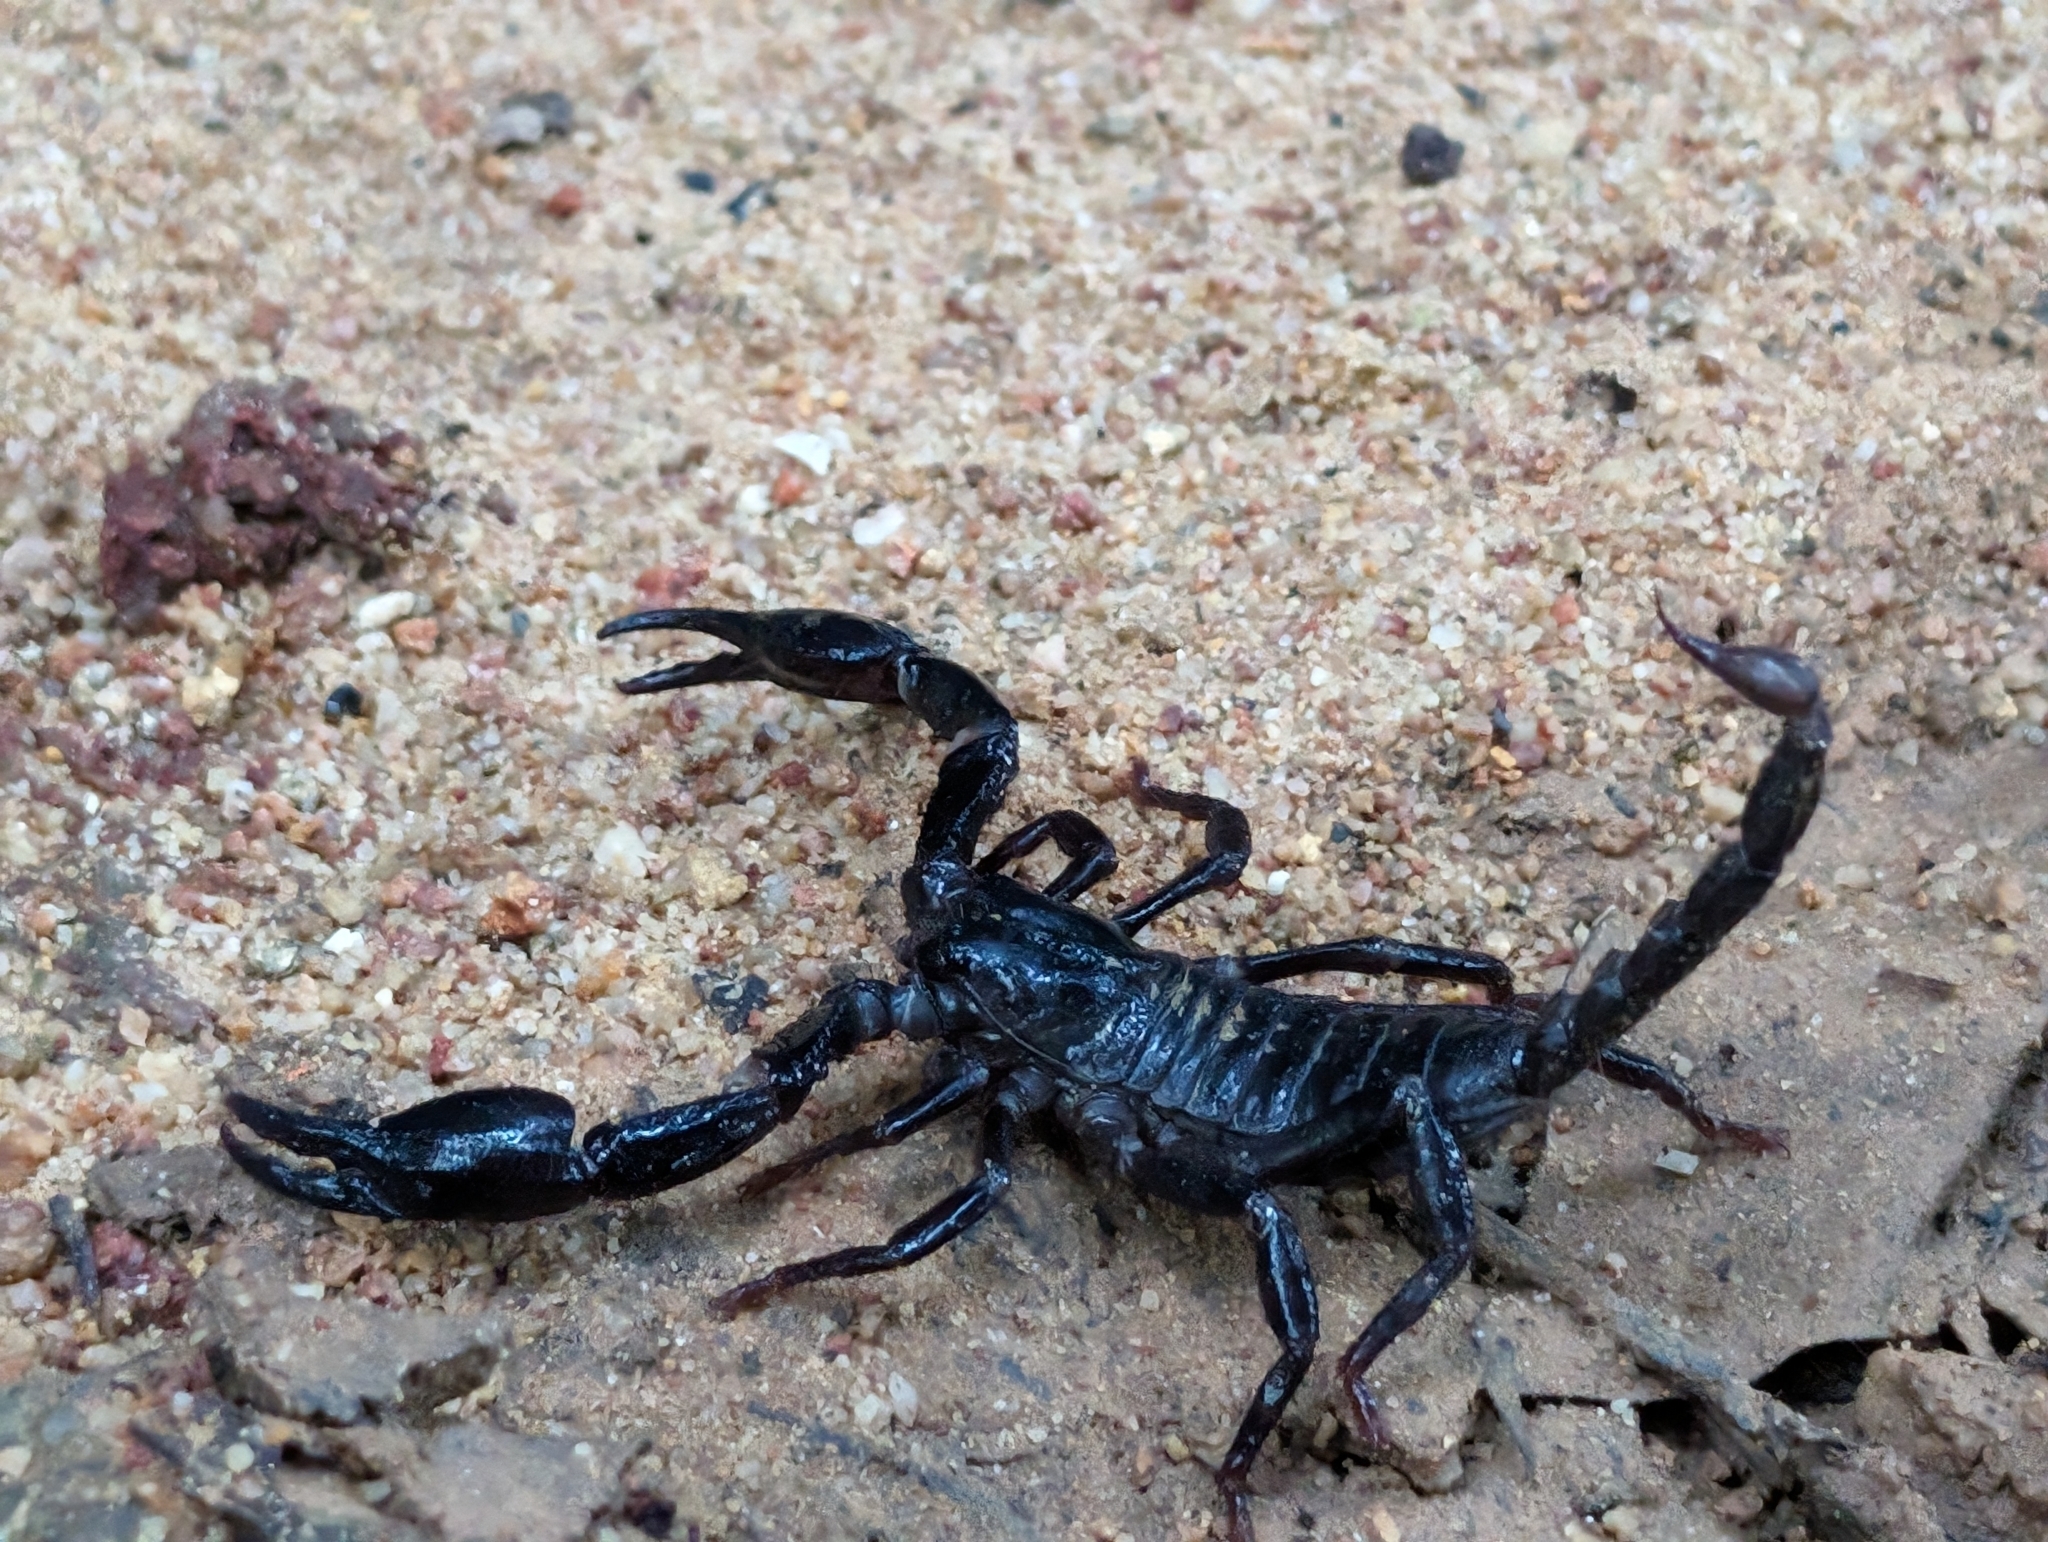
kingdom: Animalia
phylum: Arthropoda
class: Arachnida
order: Scorpiones
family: Scorpionidae
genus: Heterometrus
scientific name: Heterometrus laevigatus
